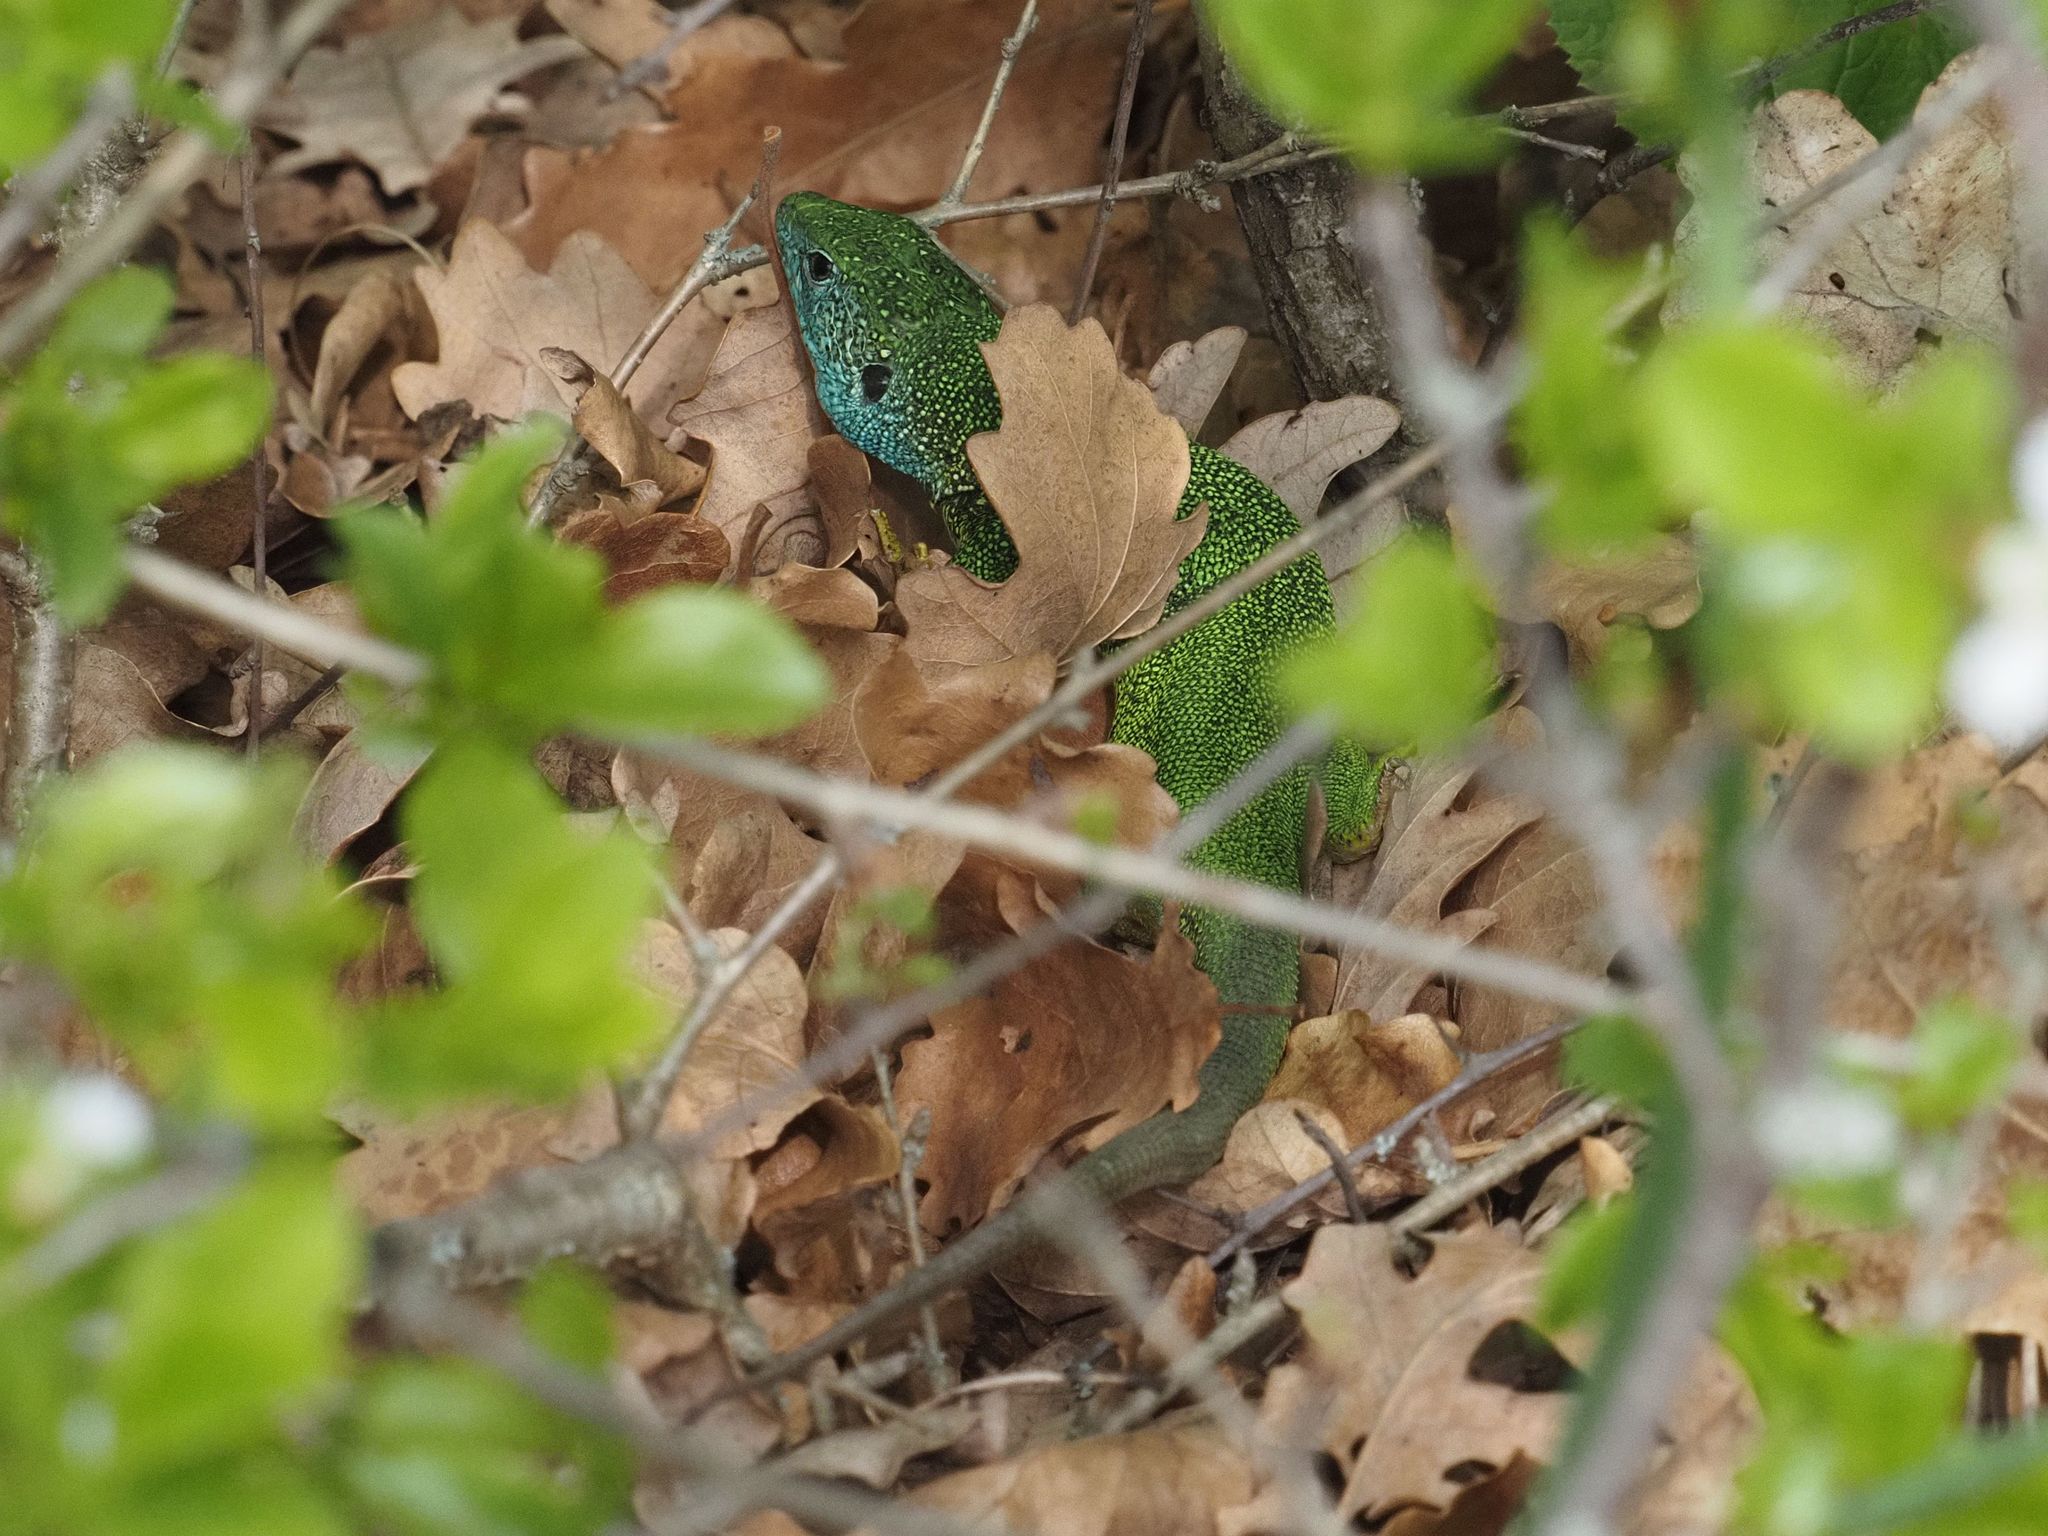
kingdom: Animalia
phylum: Chordata
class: Squamata
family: Lacertidae
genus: Lacerta
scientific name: Lacerta viridis
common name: European green lizard
